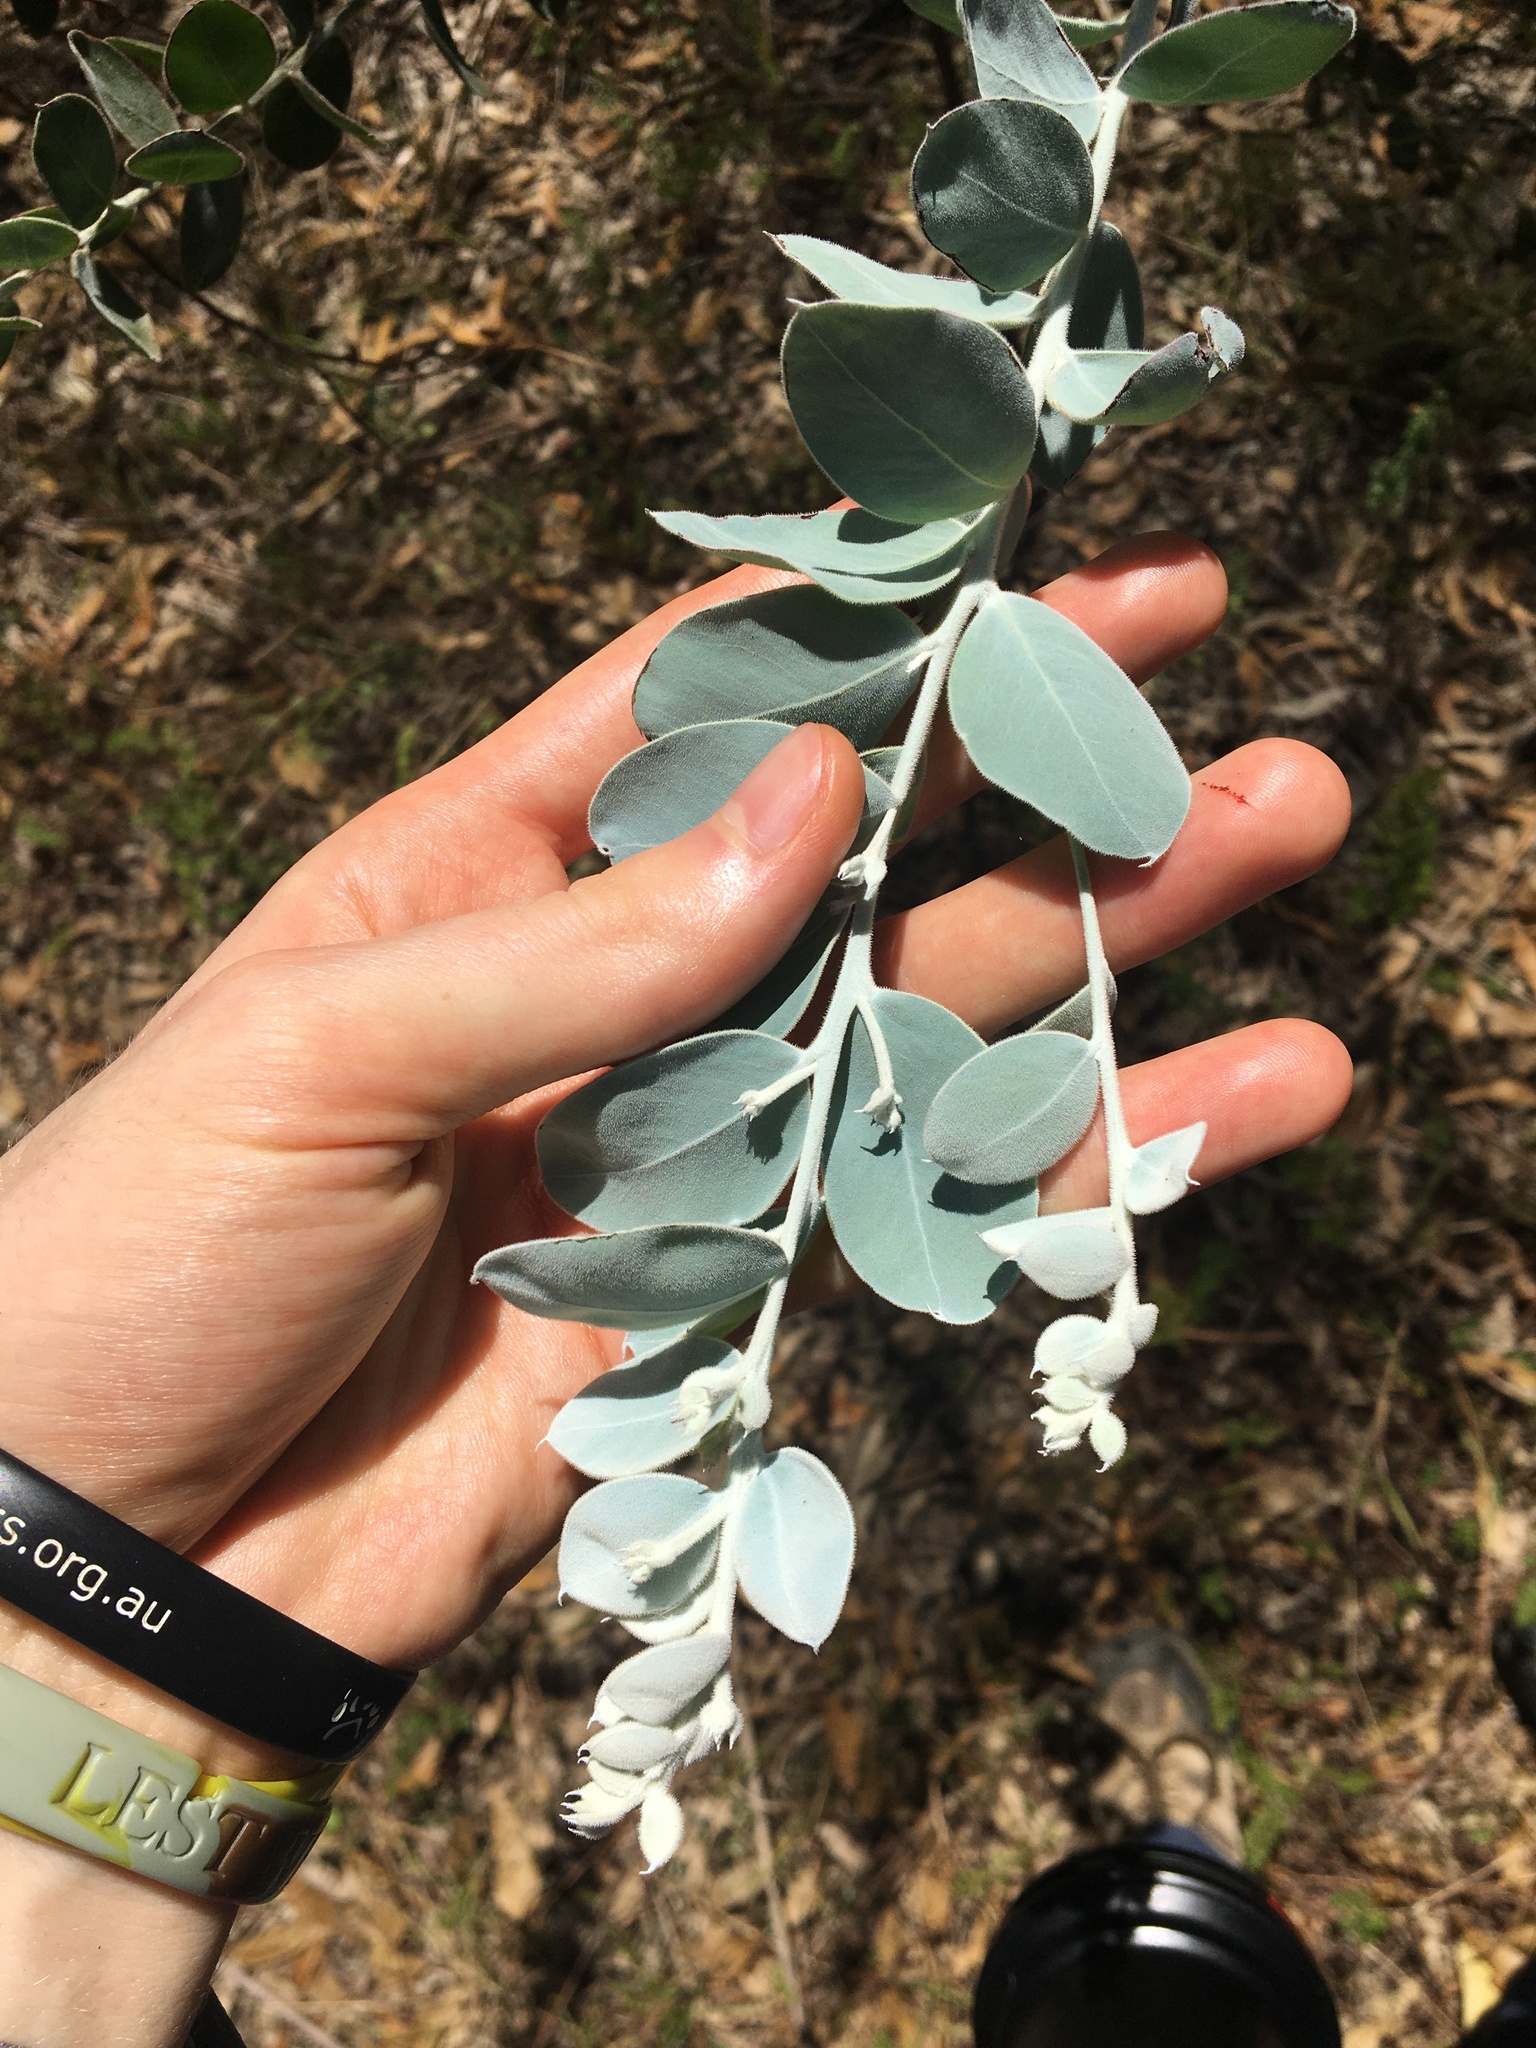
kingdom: Plantae
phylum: Tracheophyta
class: Magnoliopsida
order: Fabales
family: Fabaceae
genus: Acacia
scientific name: Acacia podalyriifolia
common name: Pearl wattle
